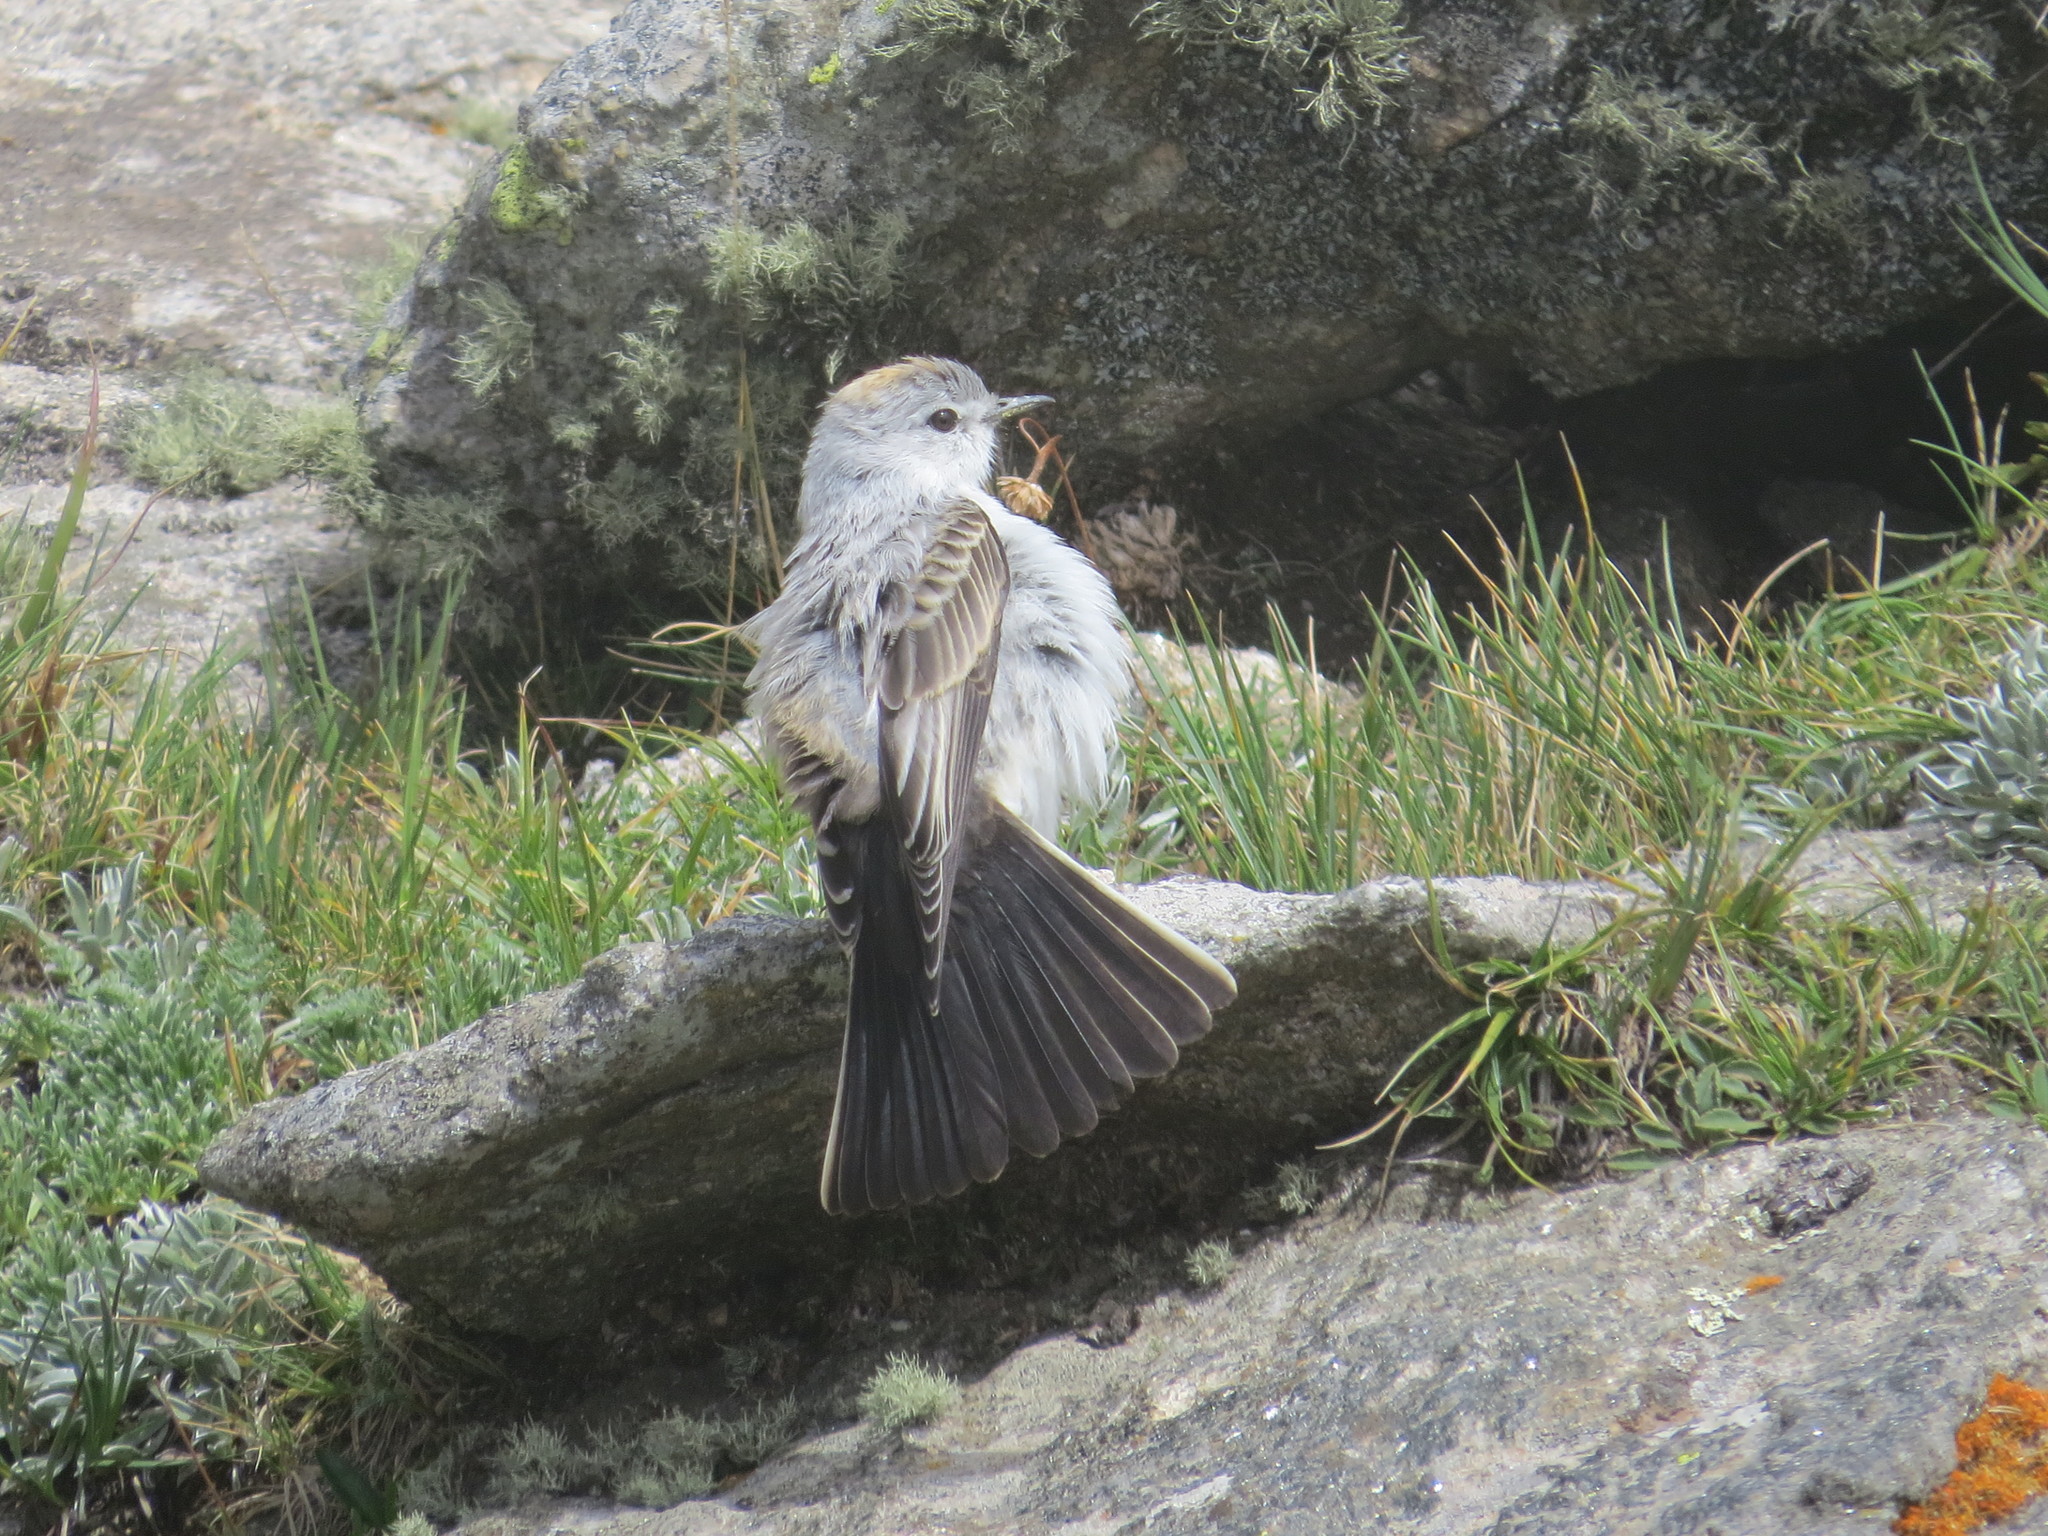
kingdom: Animalia
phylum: Chordata
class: Aves
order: Passeriformes
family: Tyrannidae
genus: Muscisaxicola
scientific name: Muscisaxicola rufivertex
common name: Rufous-naped ground tyrant
